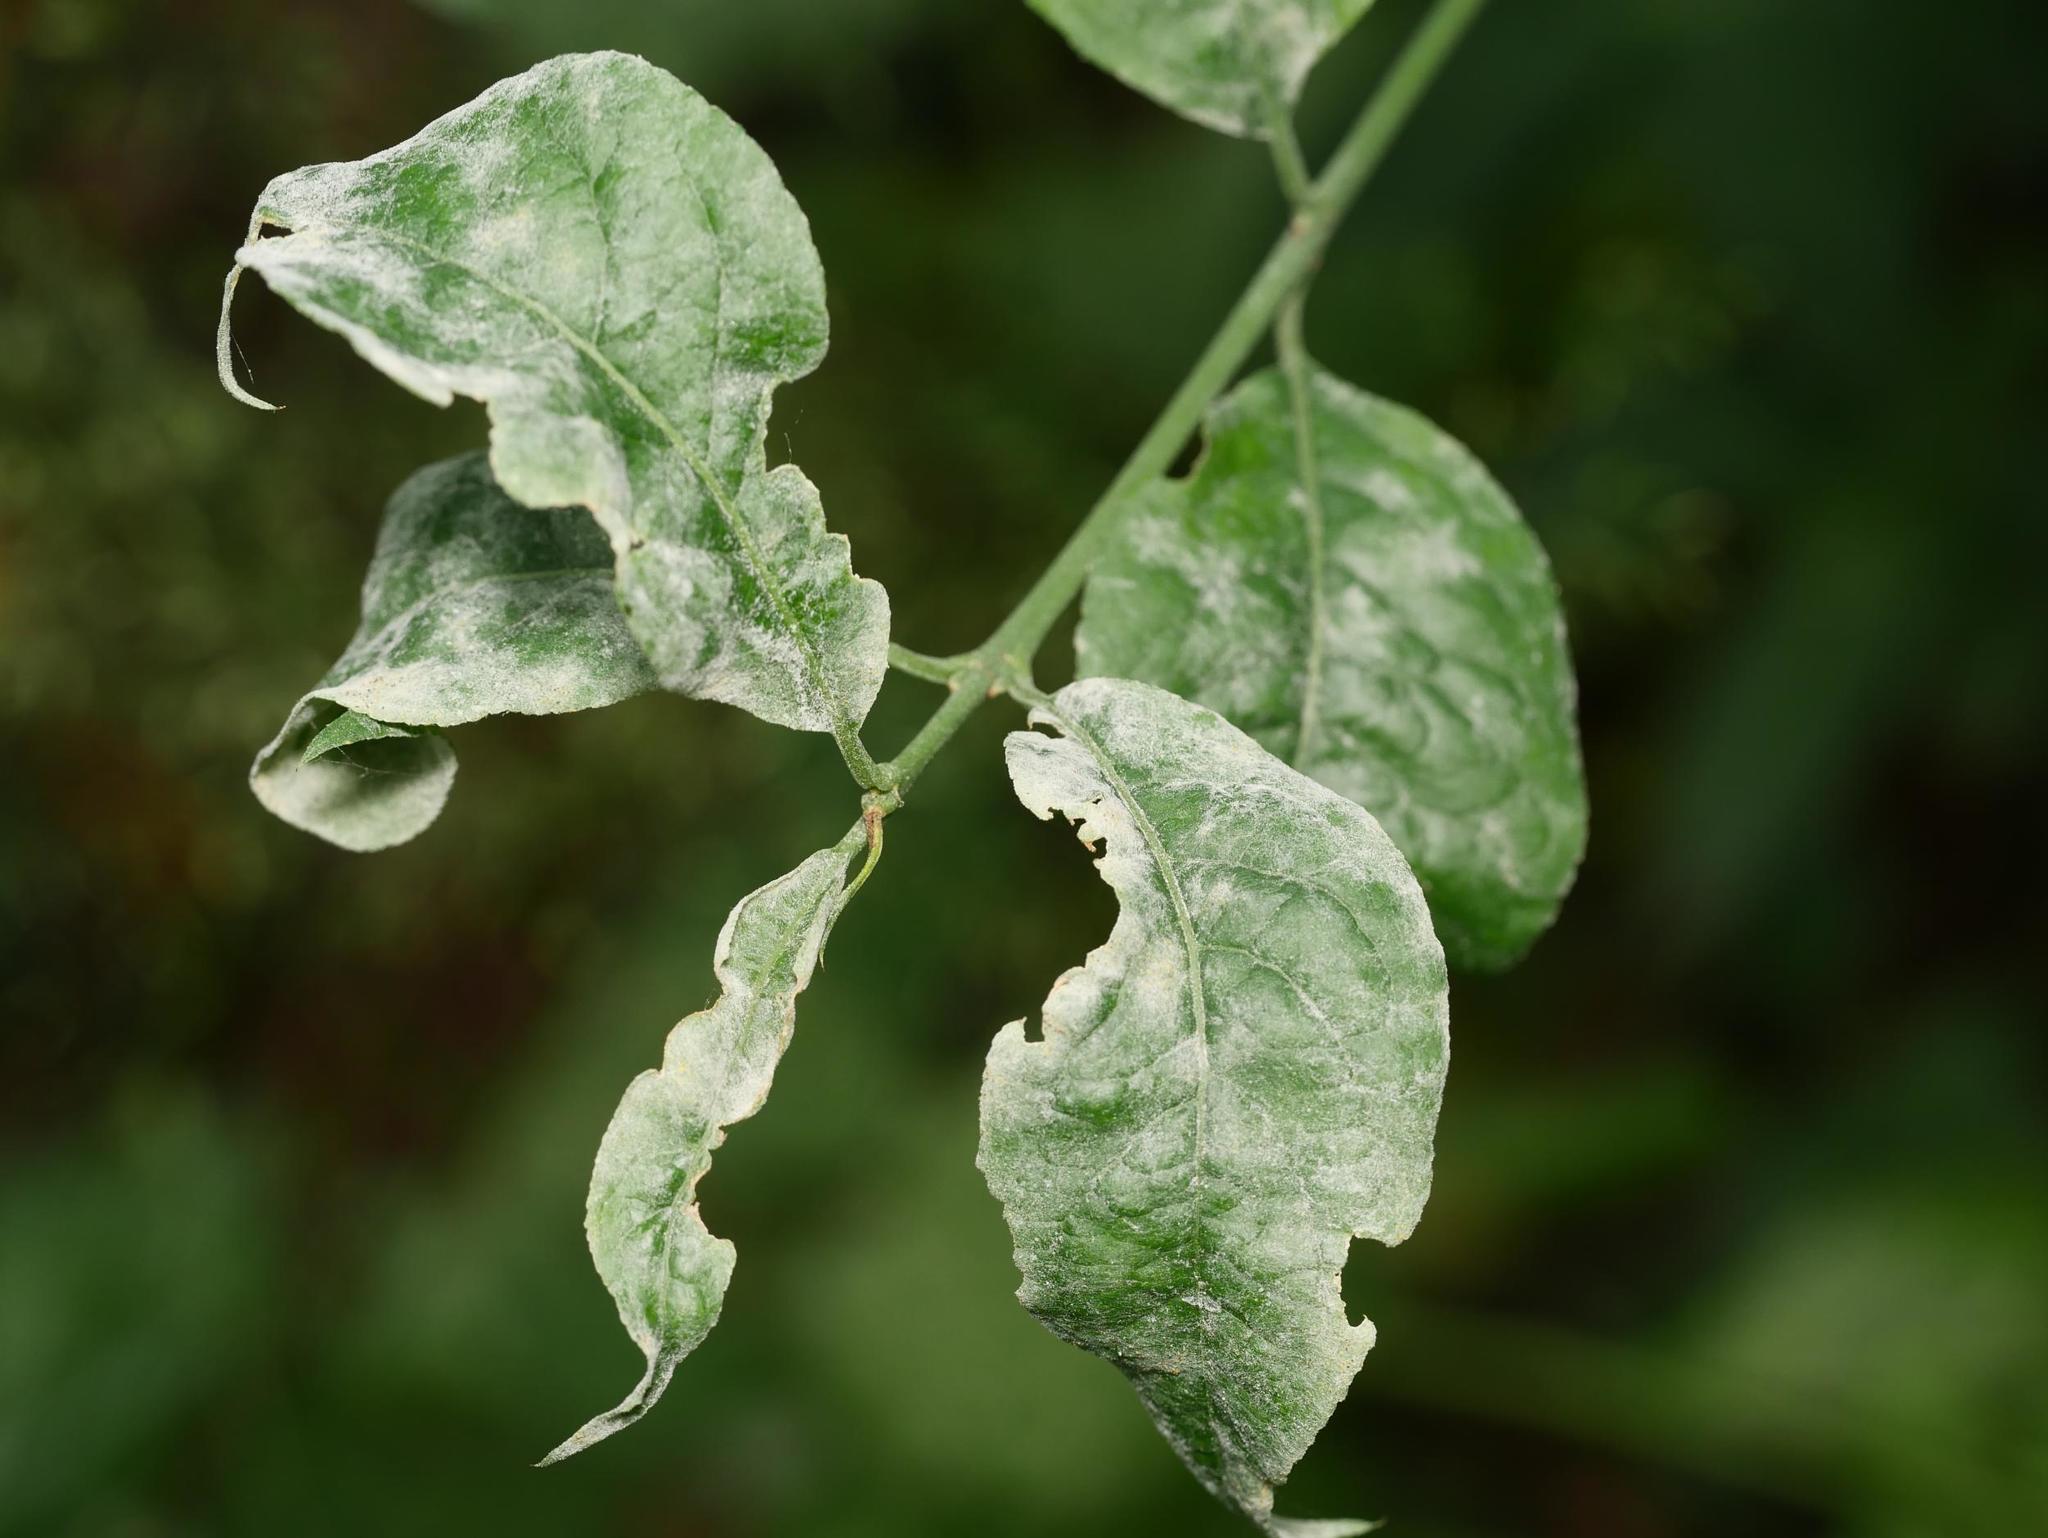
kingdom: Fungi
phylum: Ascomycota
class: Leotiomycetes
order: Helotiales
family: Erysiphaceae
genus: Erysiphe
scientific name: Erysiphe euonymi
